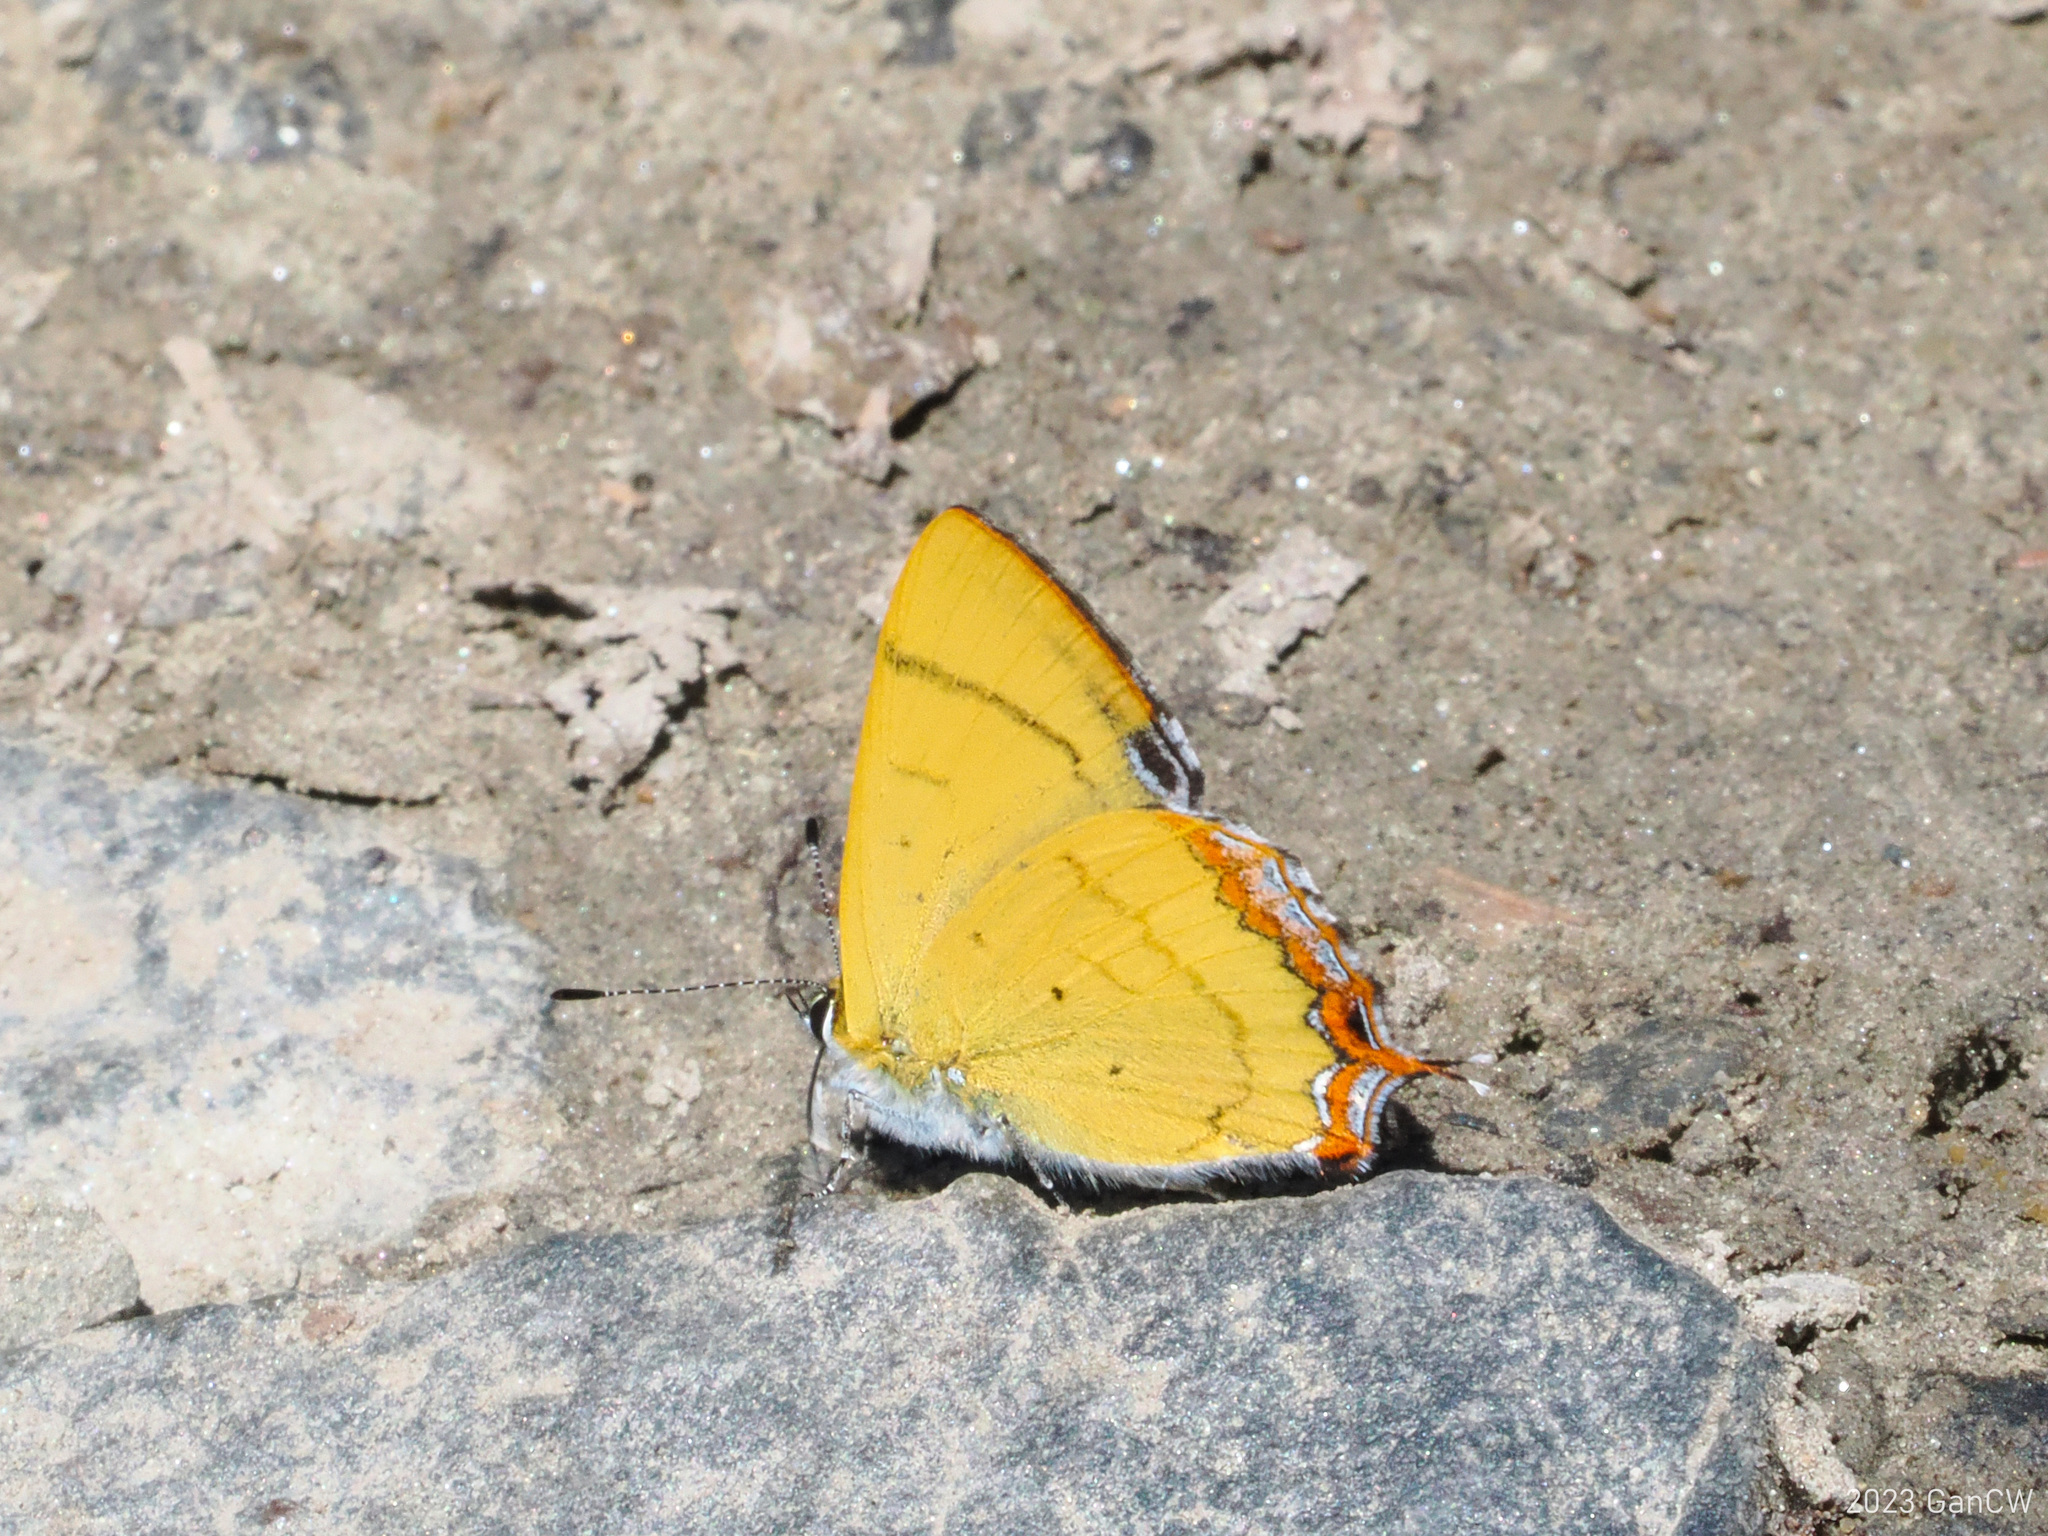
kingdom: Animalia
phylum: Arthropoda
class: Insecta
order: Lepidoptera
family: Lycaenidae
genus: Heliophorus
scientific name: Heliophorus tamu
